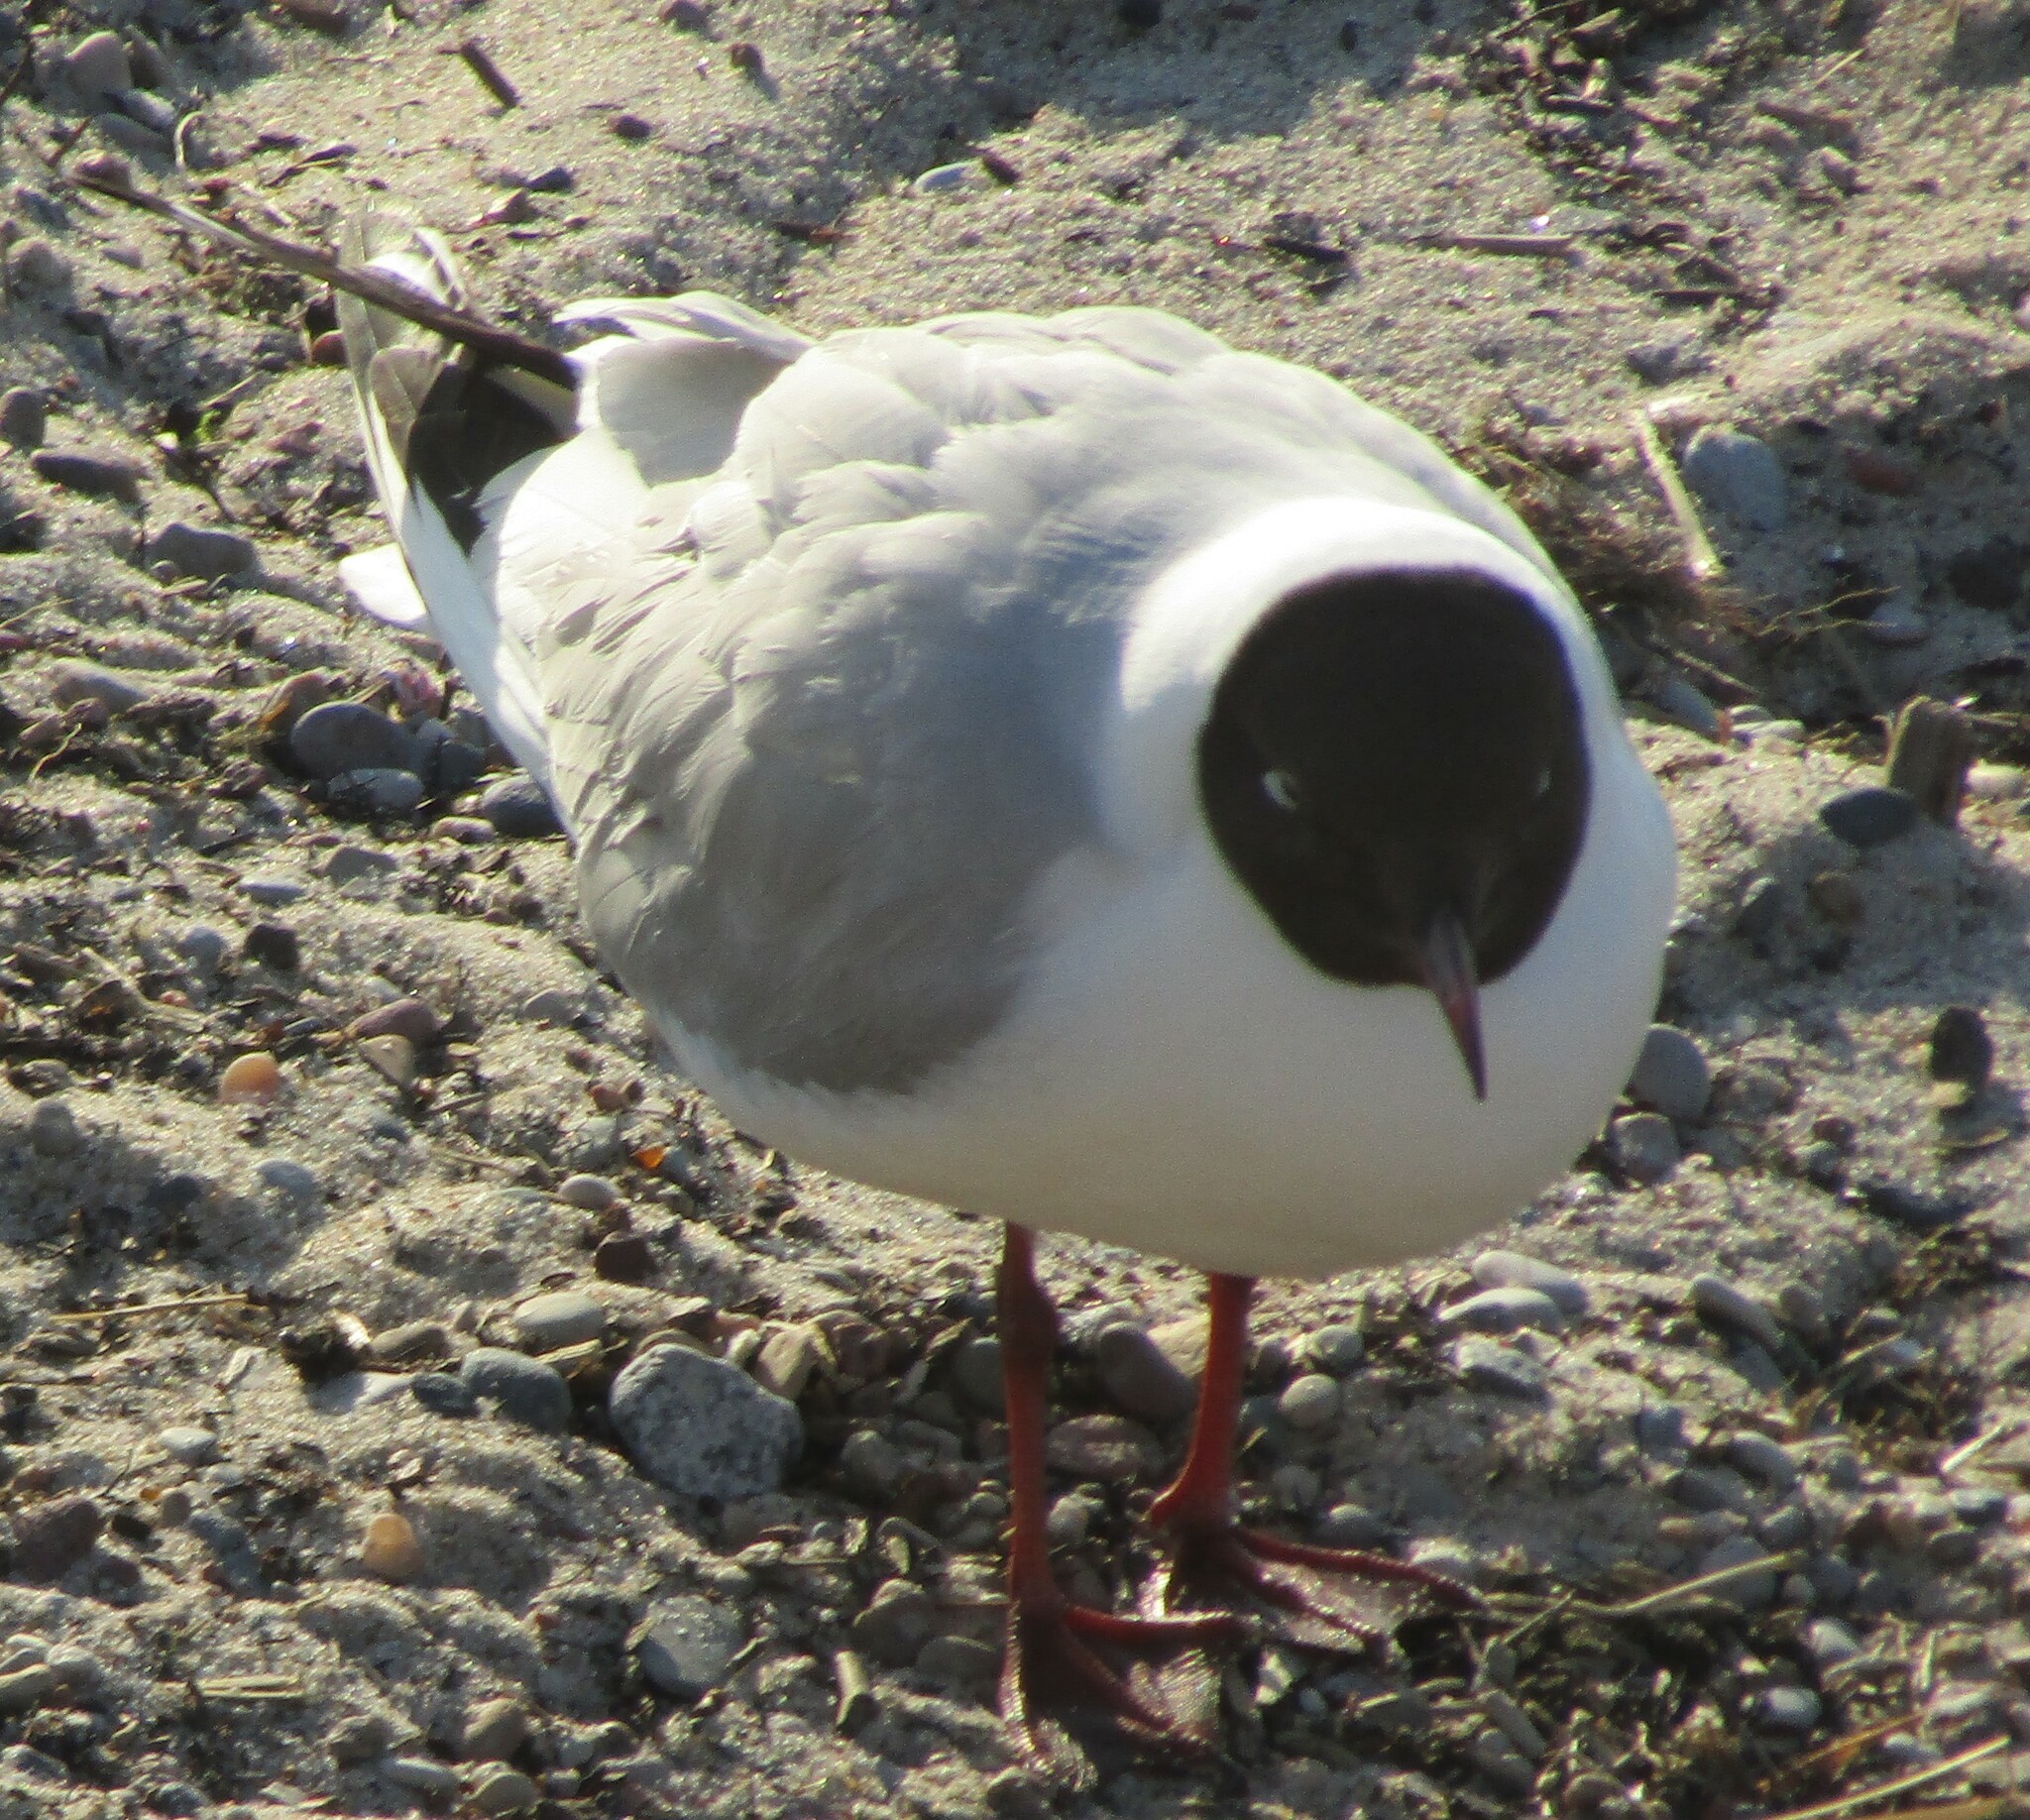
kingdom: Animalia
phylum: Chordata
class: Aves
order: Charadriiformes
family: Laridae
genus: Chroicocephalus
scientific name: Chroicocephalus ridibundus
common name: Black-headed gull
